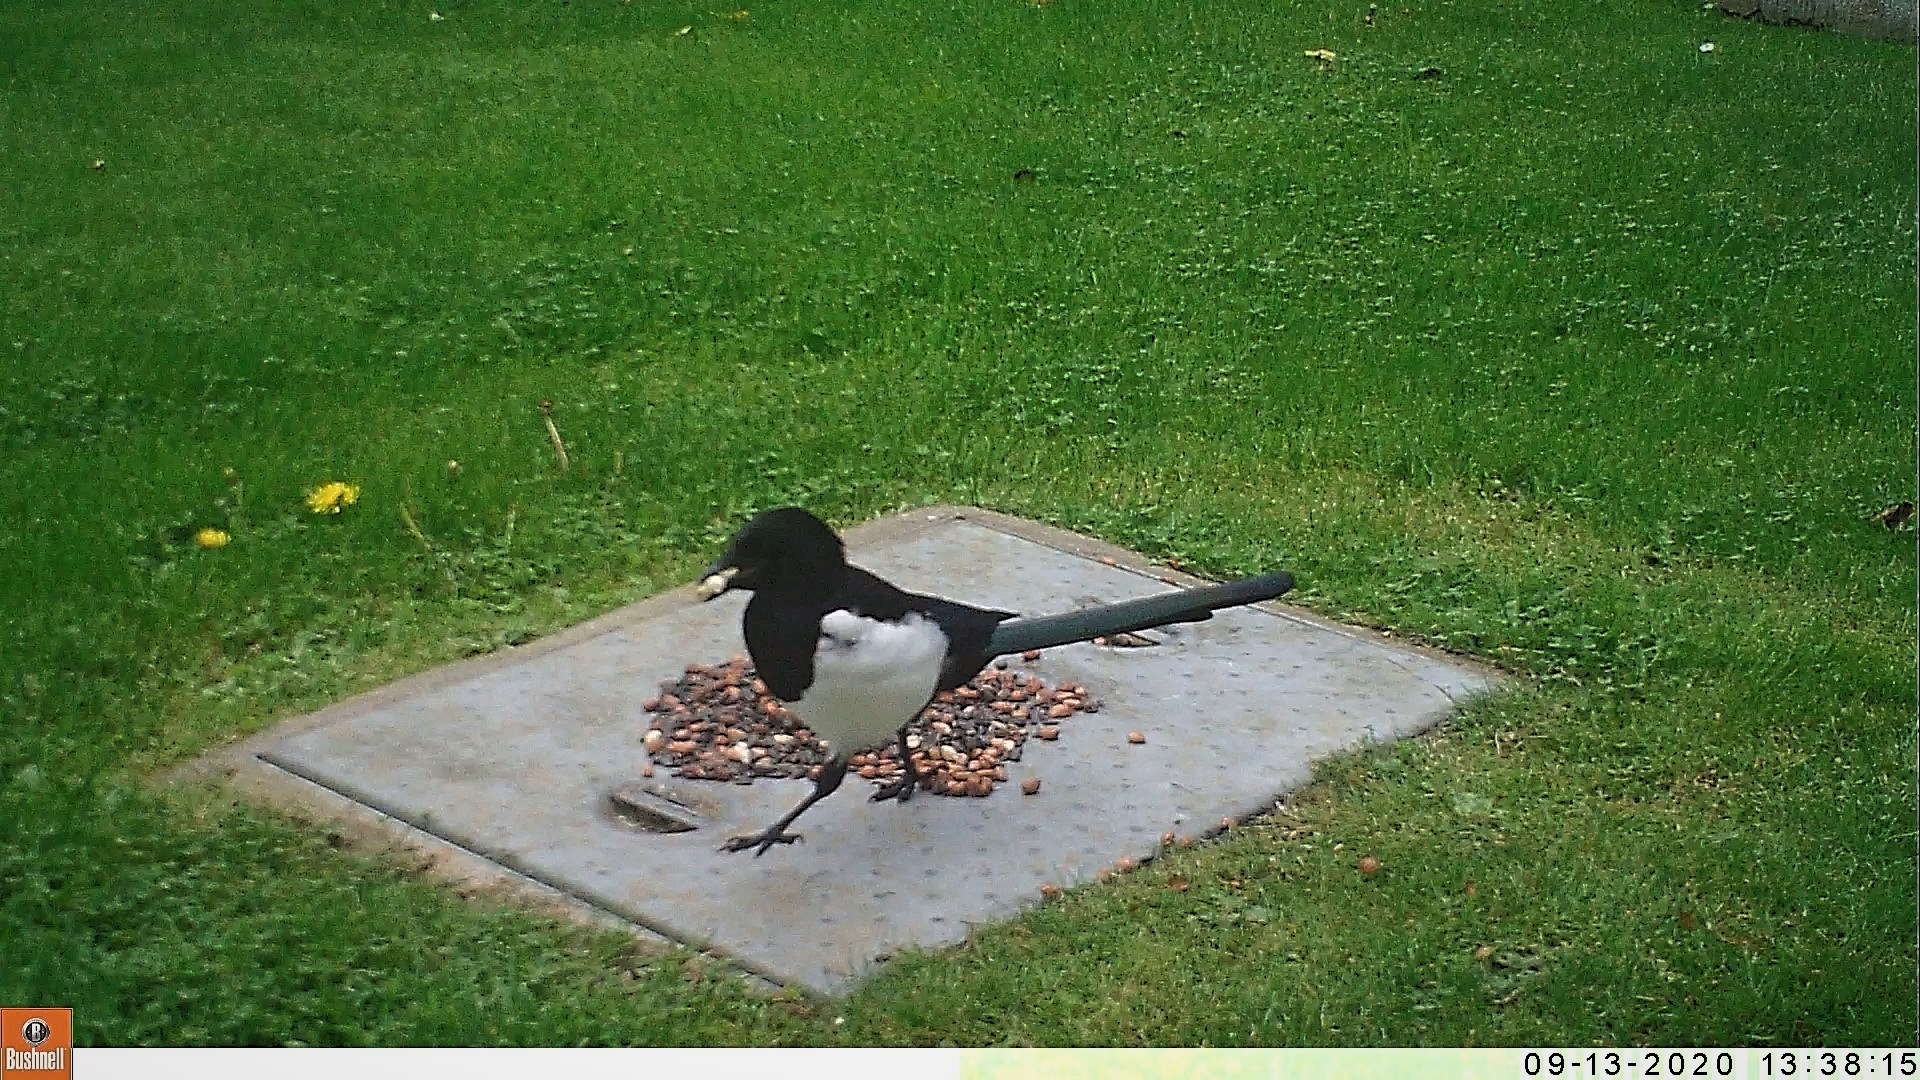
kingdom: Animalia
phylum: Chordata
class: Aves
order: Passeriformes
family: Corvidae
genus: Pica
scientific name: Pica pica
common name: Eurasian magpie
